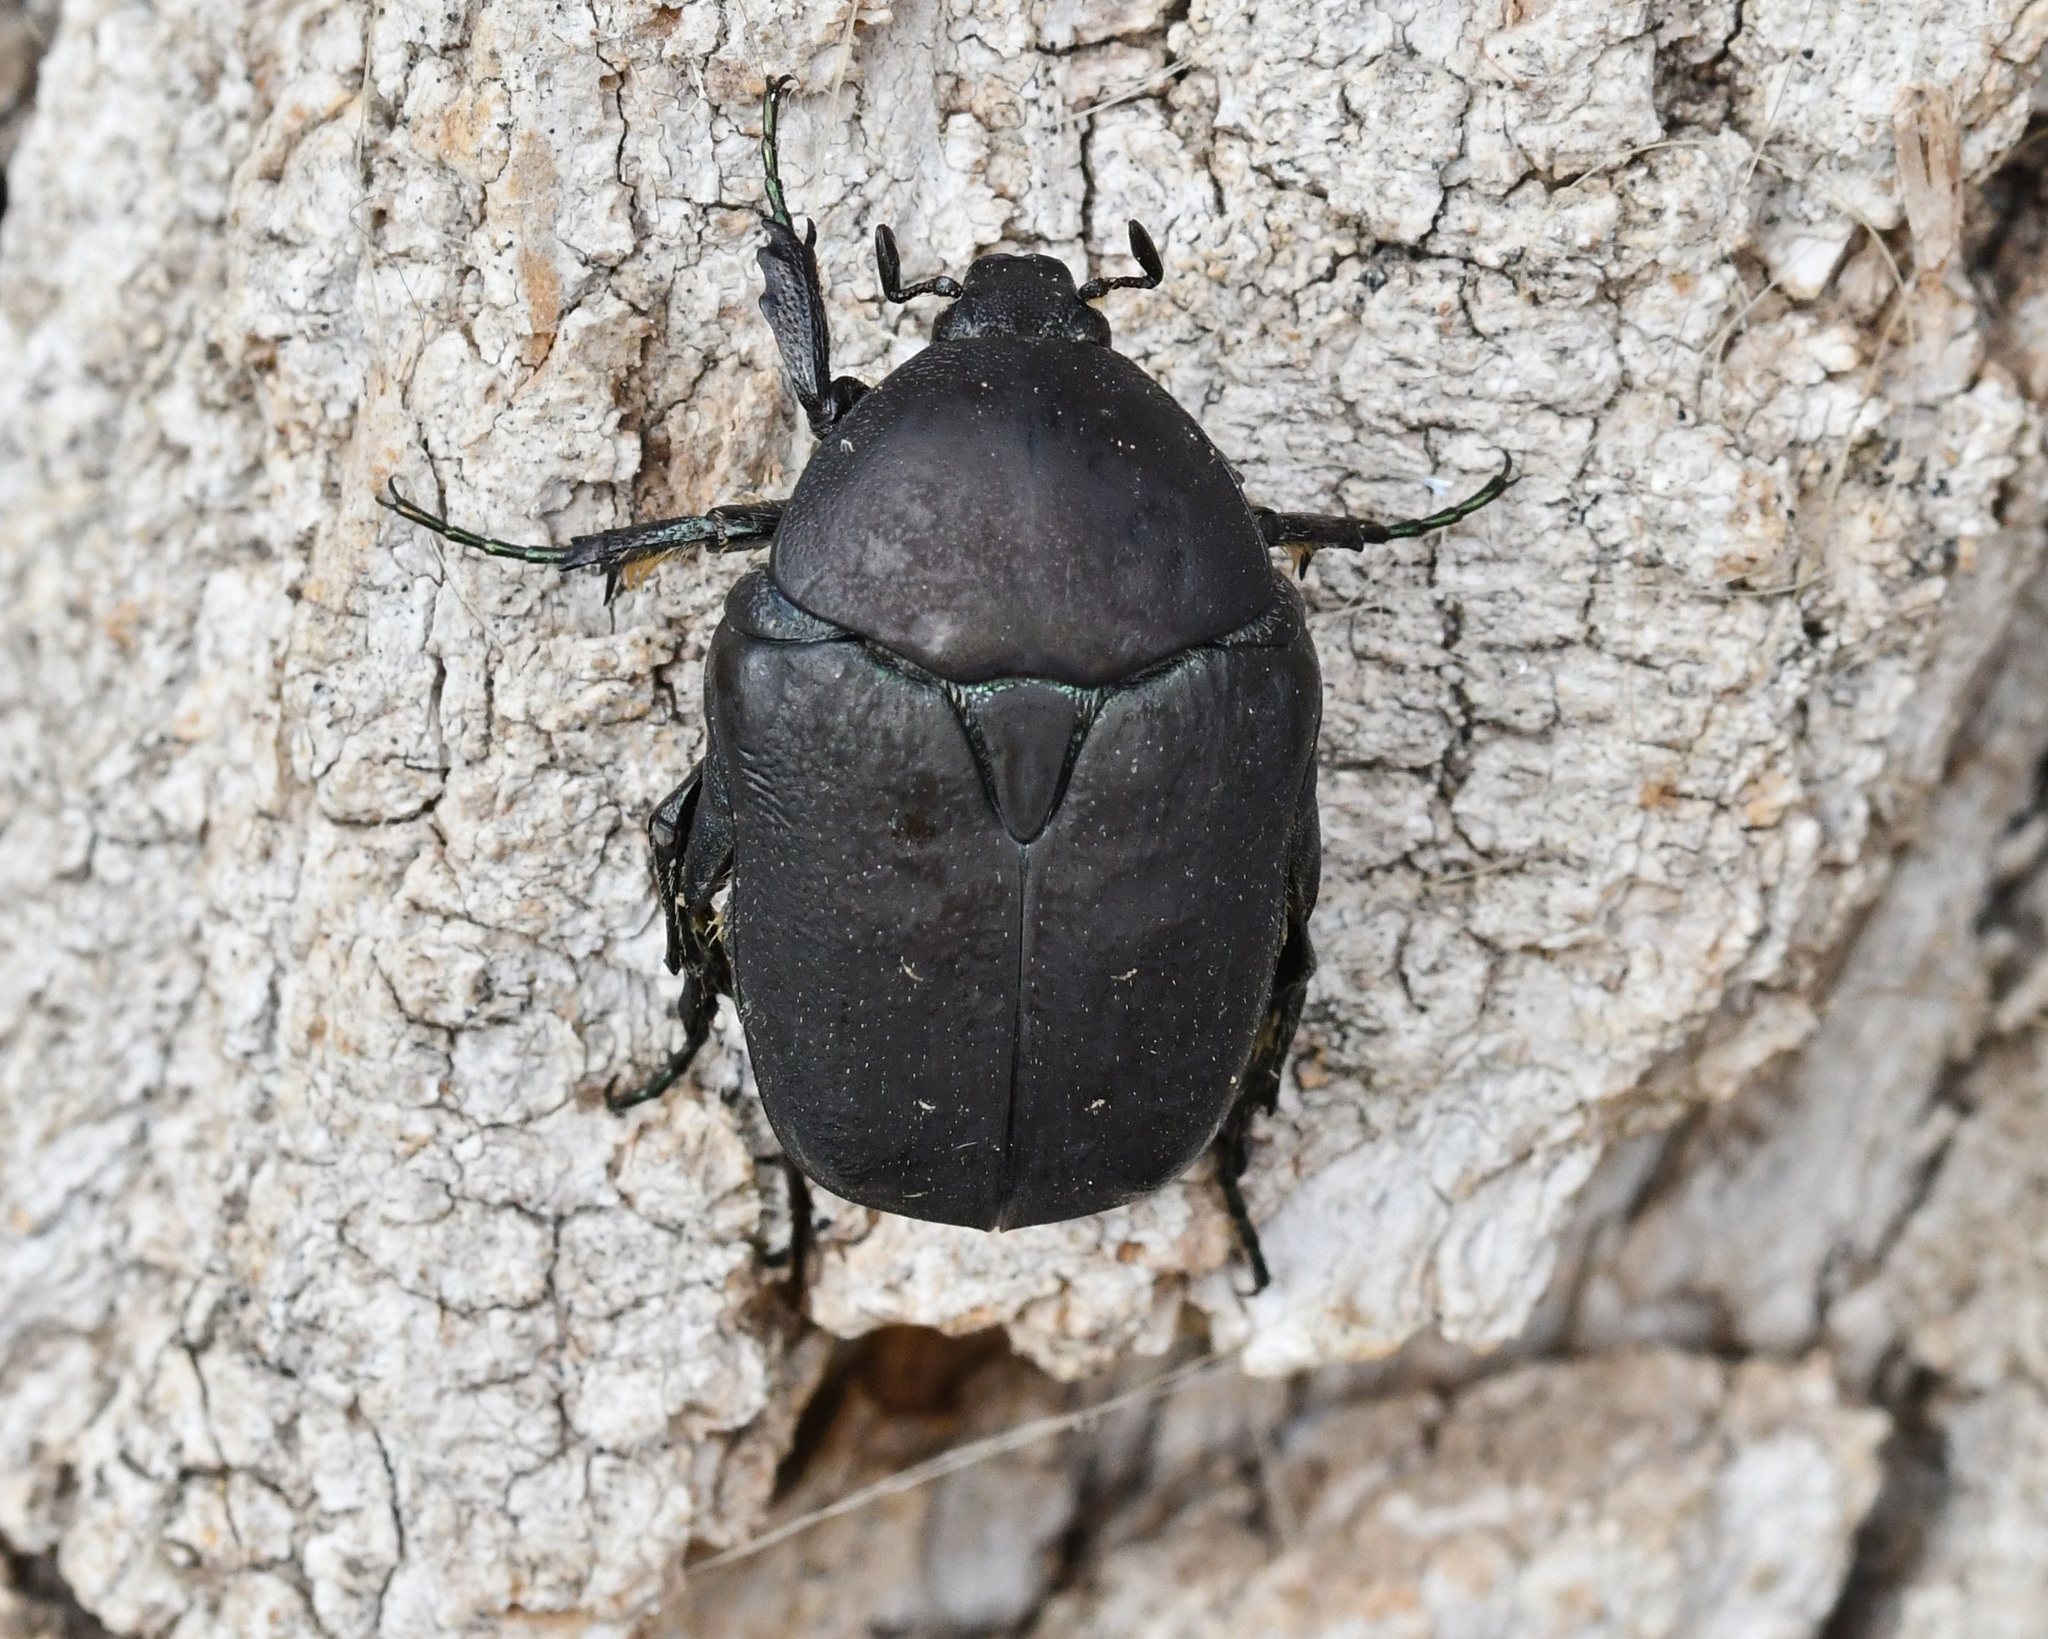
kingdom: Animalia
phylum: Arthropoda
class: Insecta
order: Coleoptera
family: Scarabaeidae
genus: Protaetia
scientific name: Protaetia afflicta
